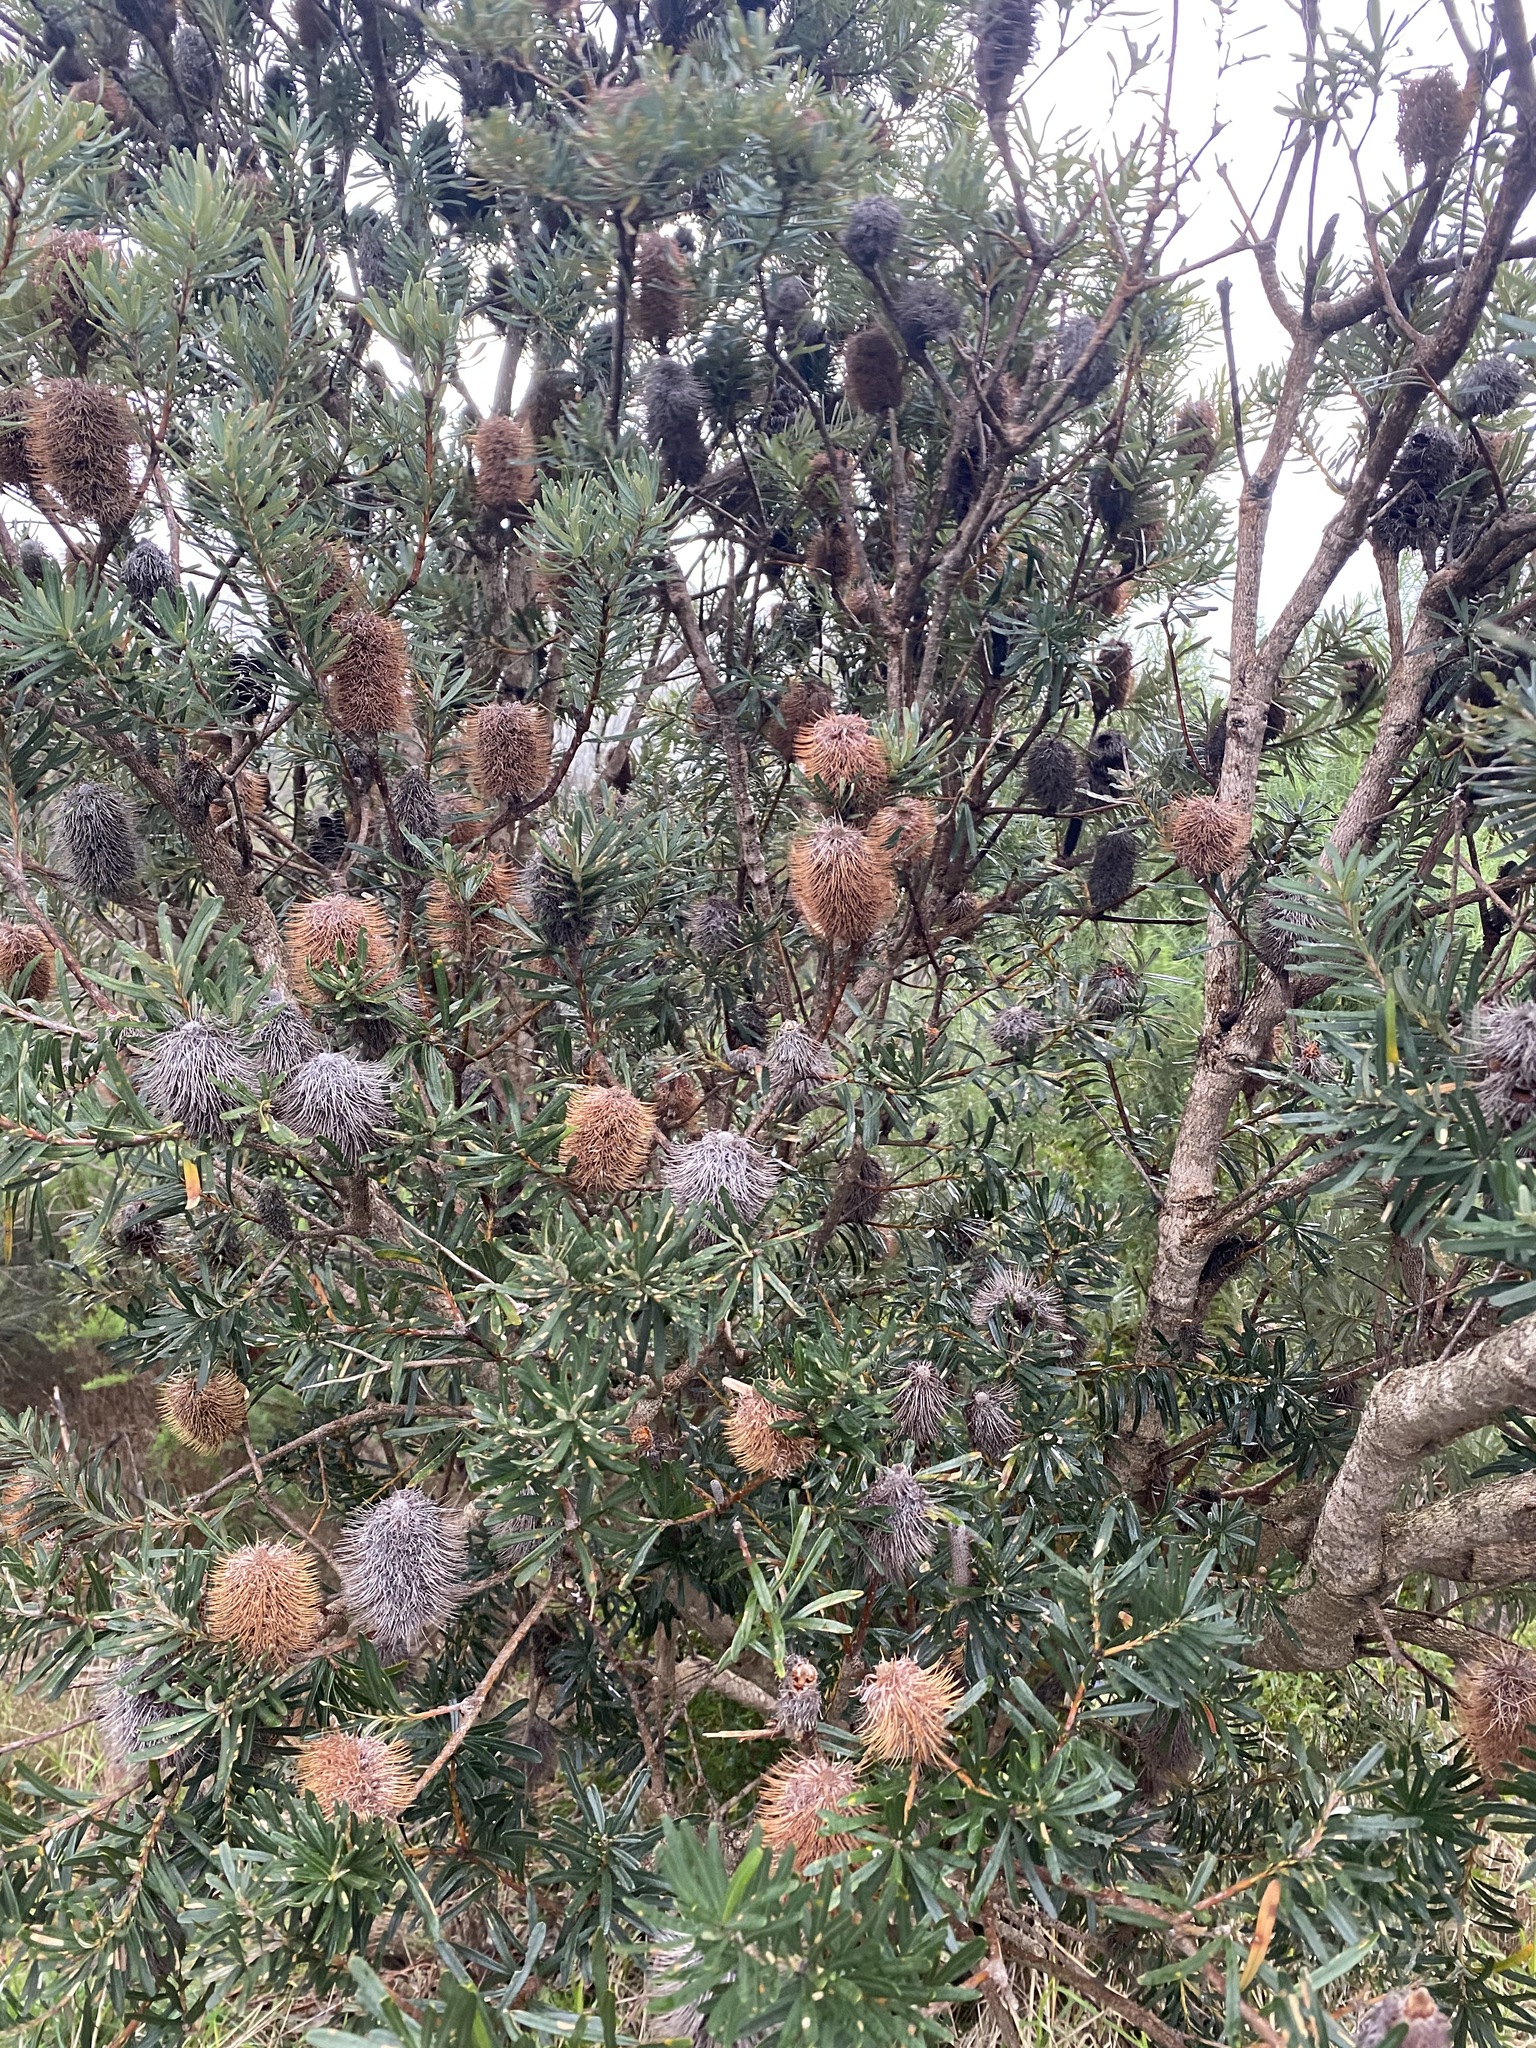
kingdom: Plantae
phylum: Tracheophyta
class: Magnoliopsida
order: Proteales
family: Proteaceae
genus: Banksia
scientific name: Banksia marginata
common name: Silver banksia
